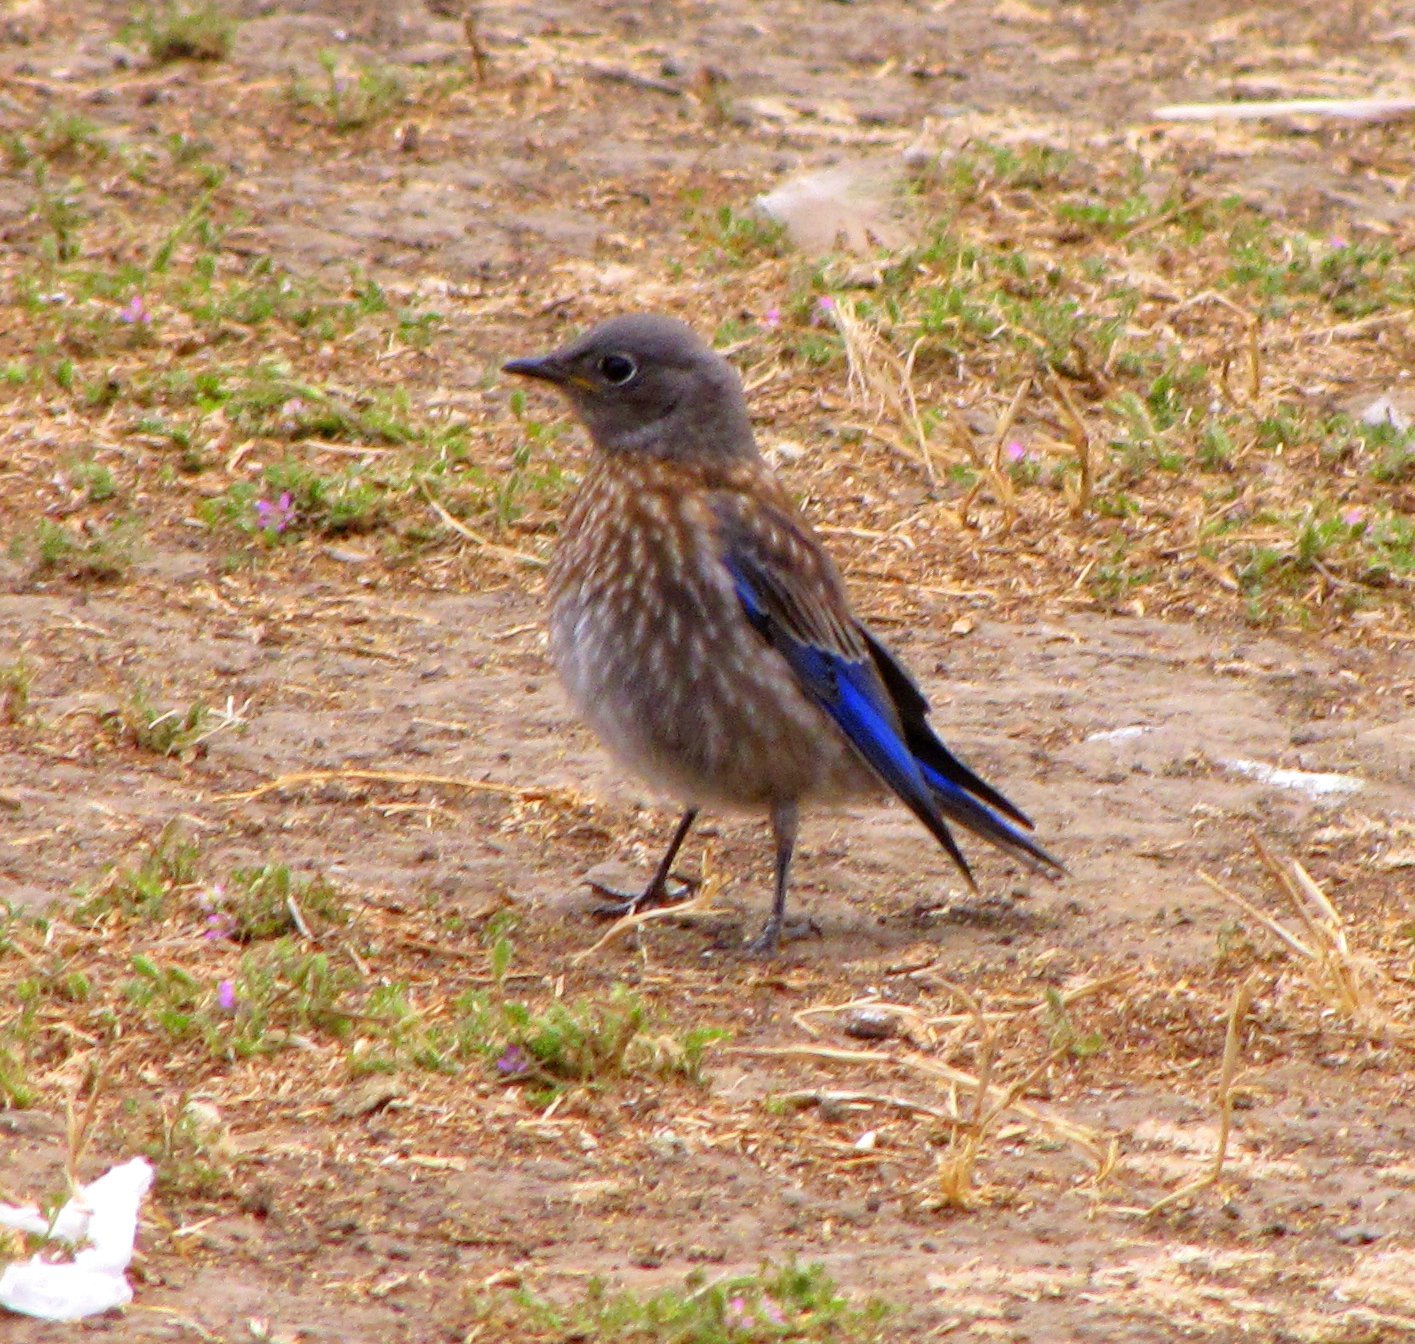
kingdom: Animalia
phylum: Chordata
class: Aves
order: Passeriformes
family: Turdidae
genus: Sialia
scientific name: Sialia mexicana
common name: Western bluebird
